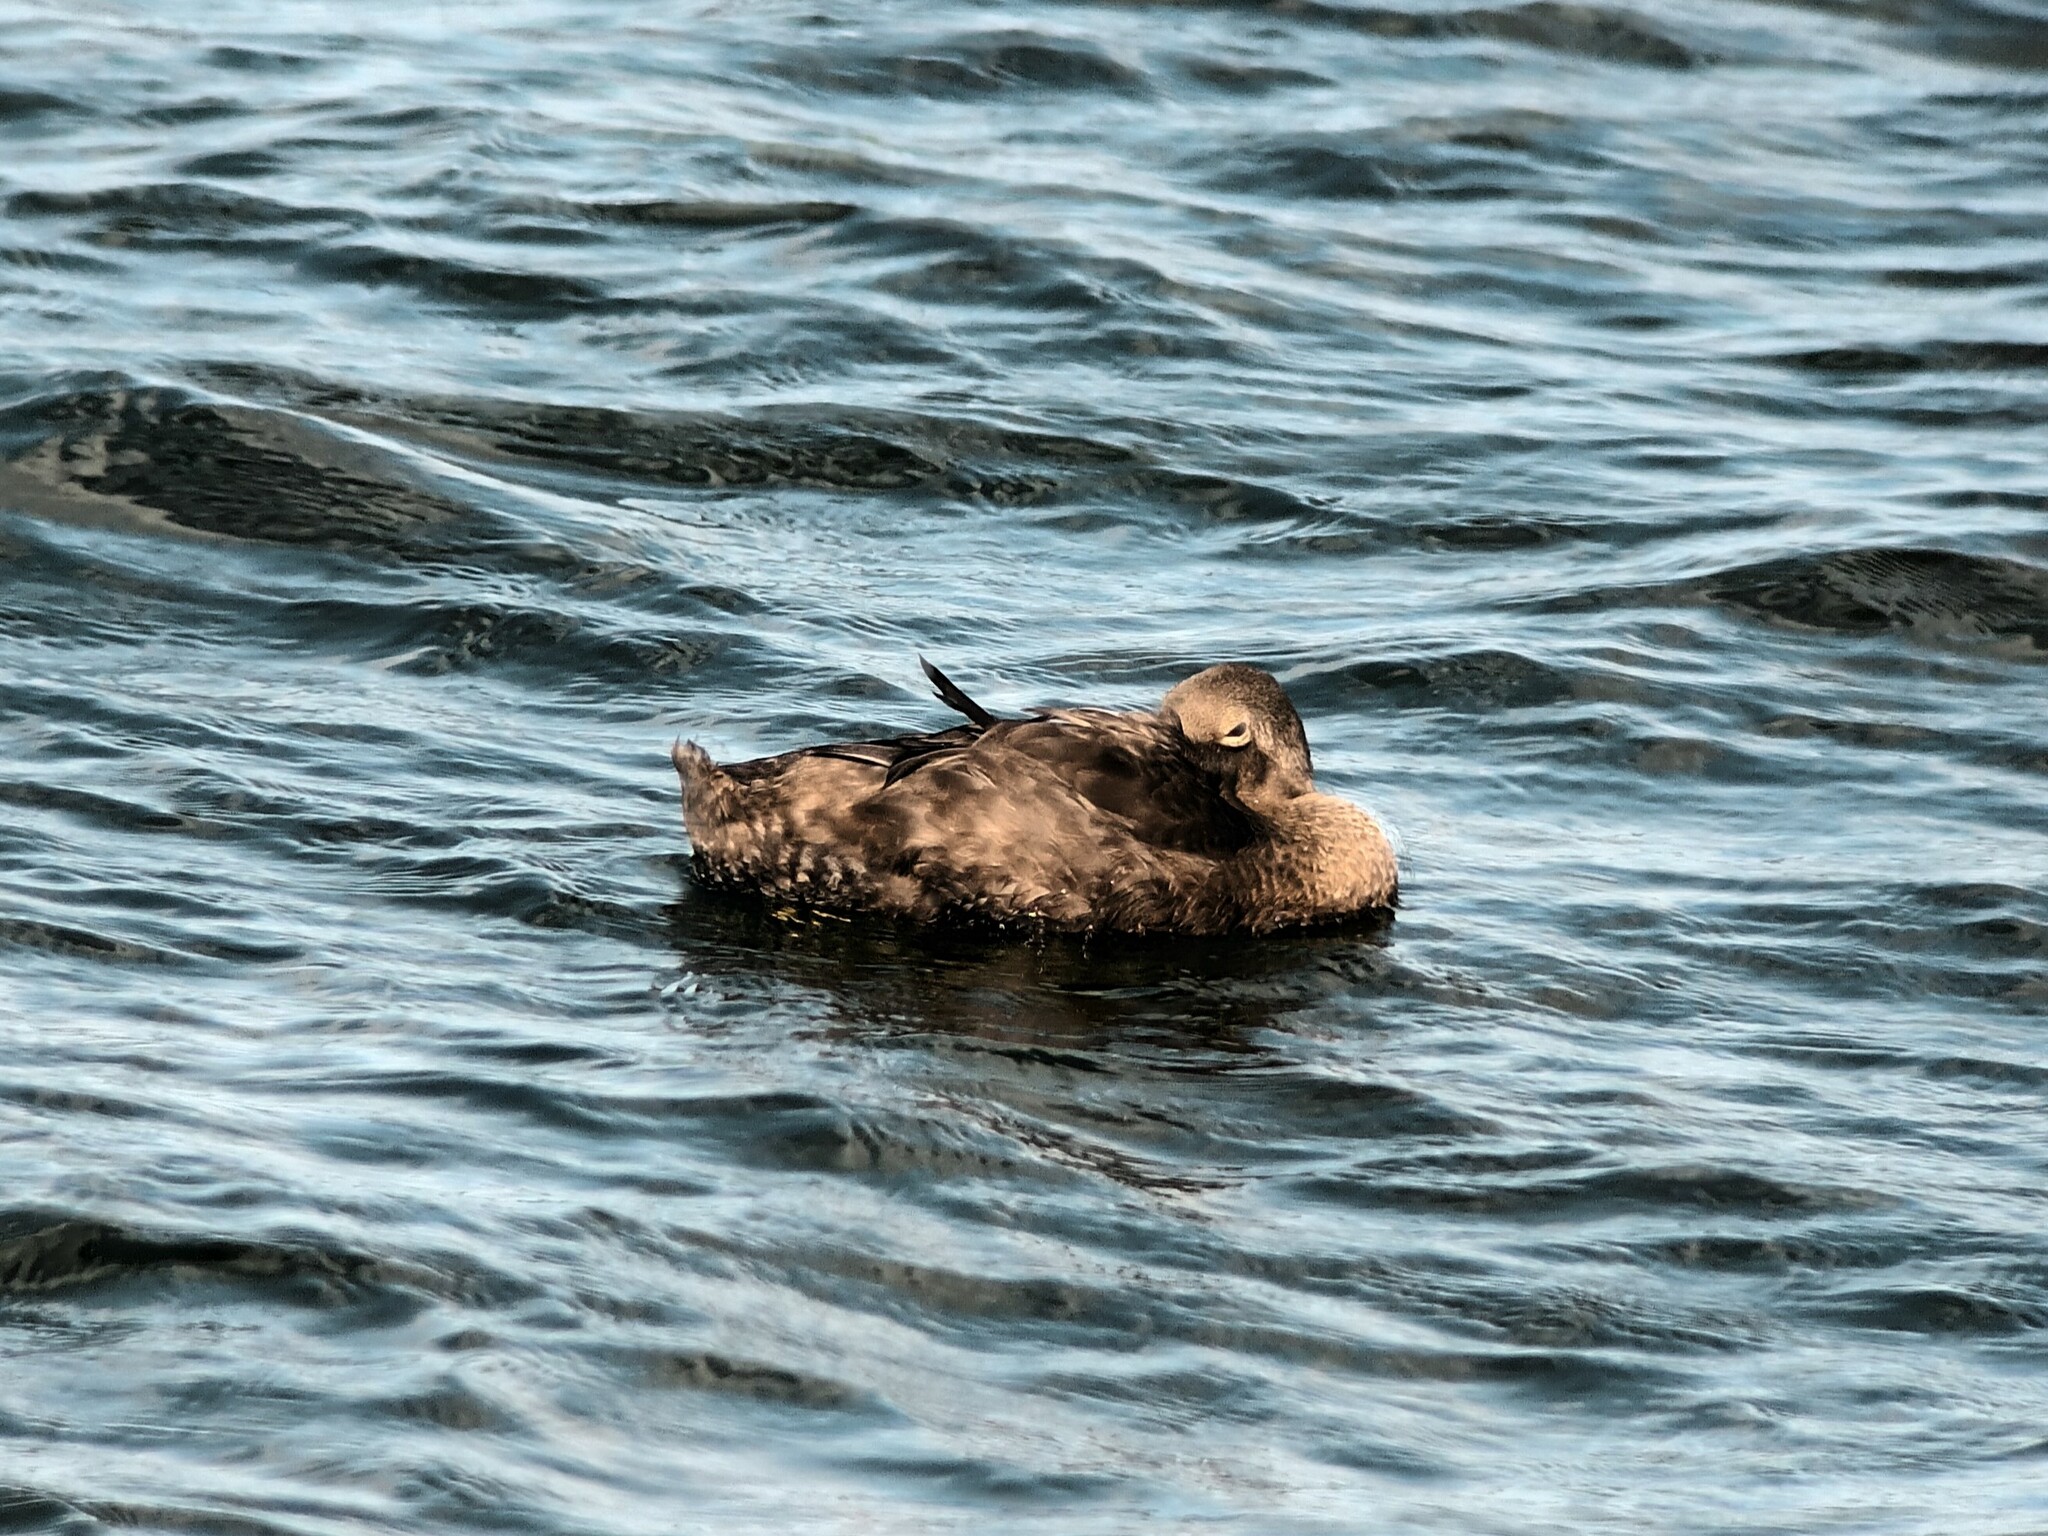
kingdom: Animalia
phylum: Chordata
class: Aves
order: Anseriformes
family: Anatidae
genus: Somateria
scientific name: Somateria spectabilis
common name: King eider
